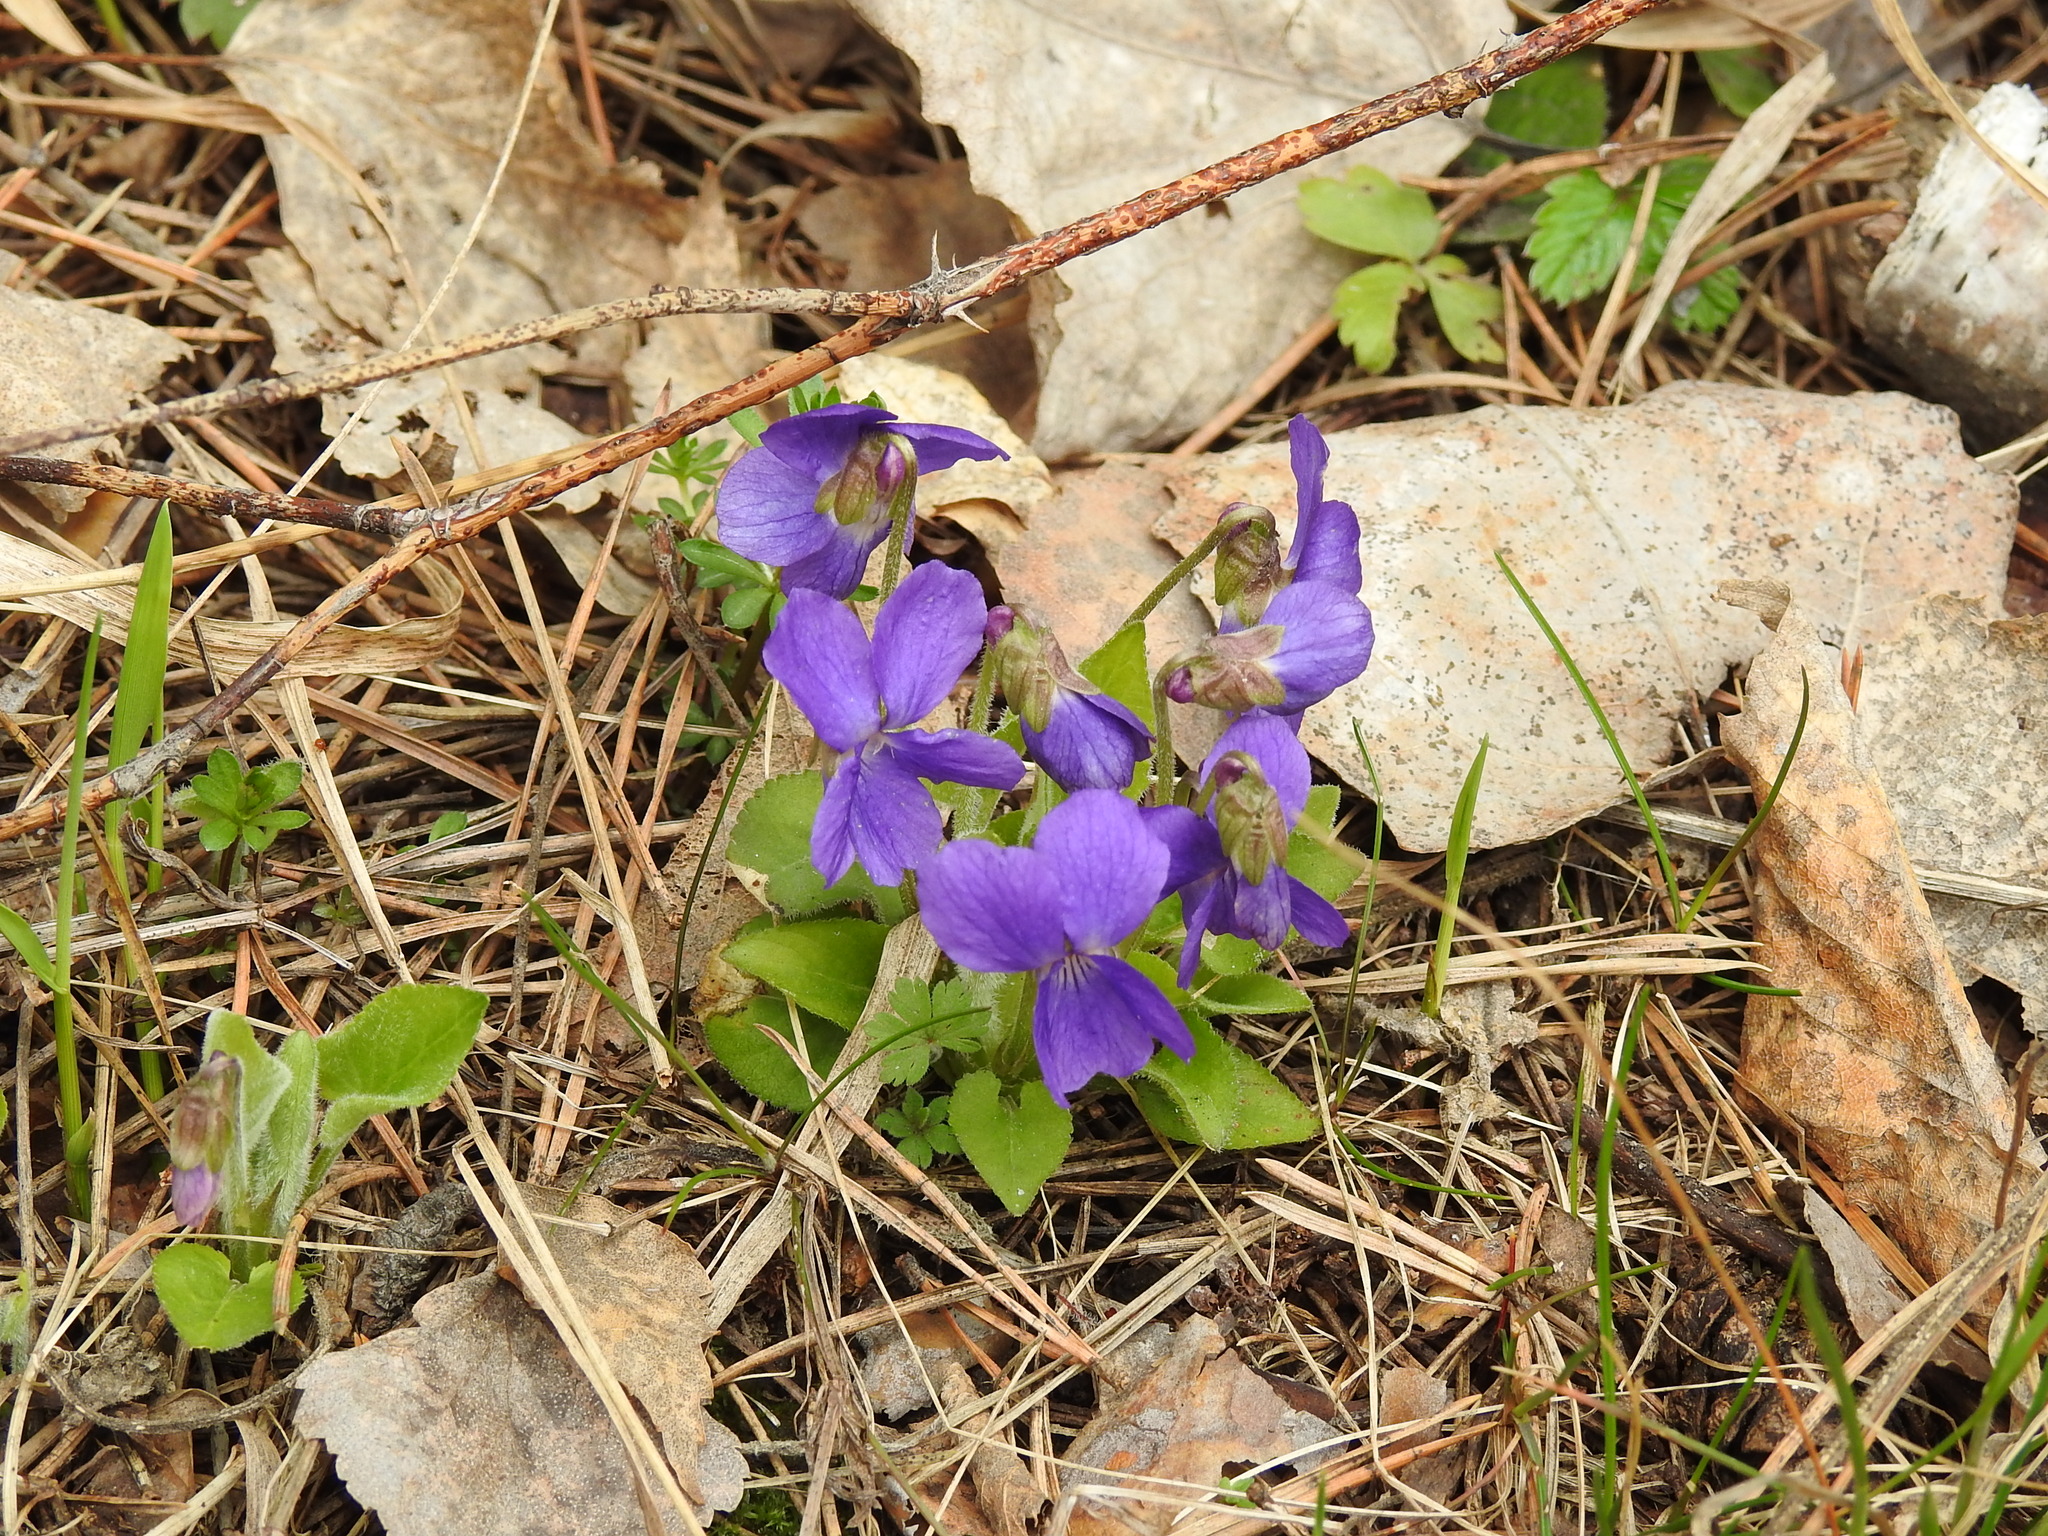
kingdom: Plantae
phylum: Tracheophyta
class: Magnoliopsida
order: Malpighiales
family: Violaceae
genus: Viola
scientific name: Viola hirta
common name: Hairy violet
